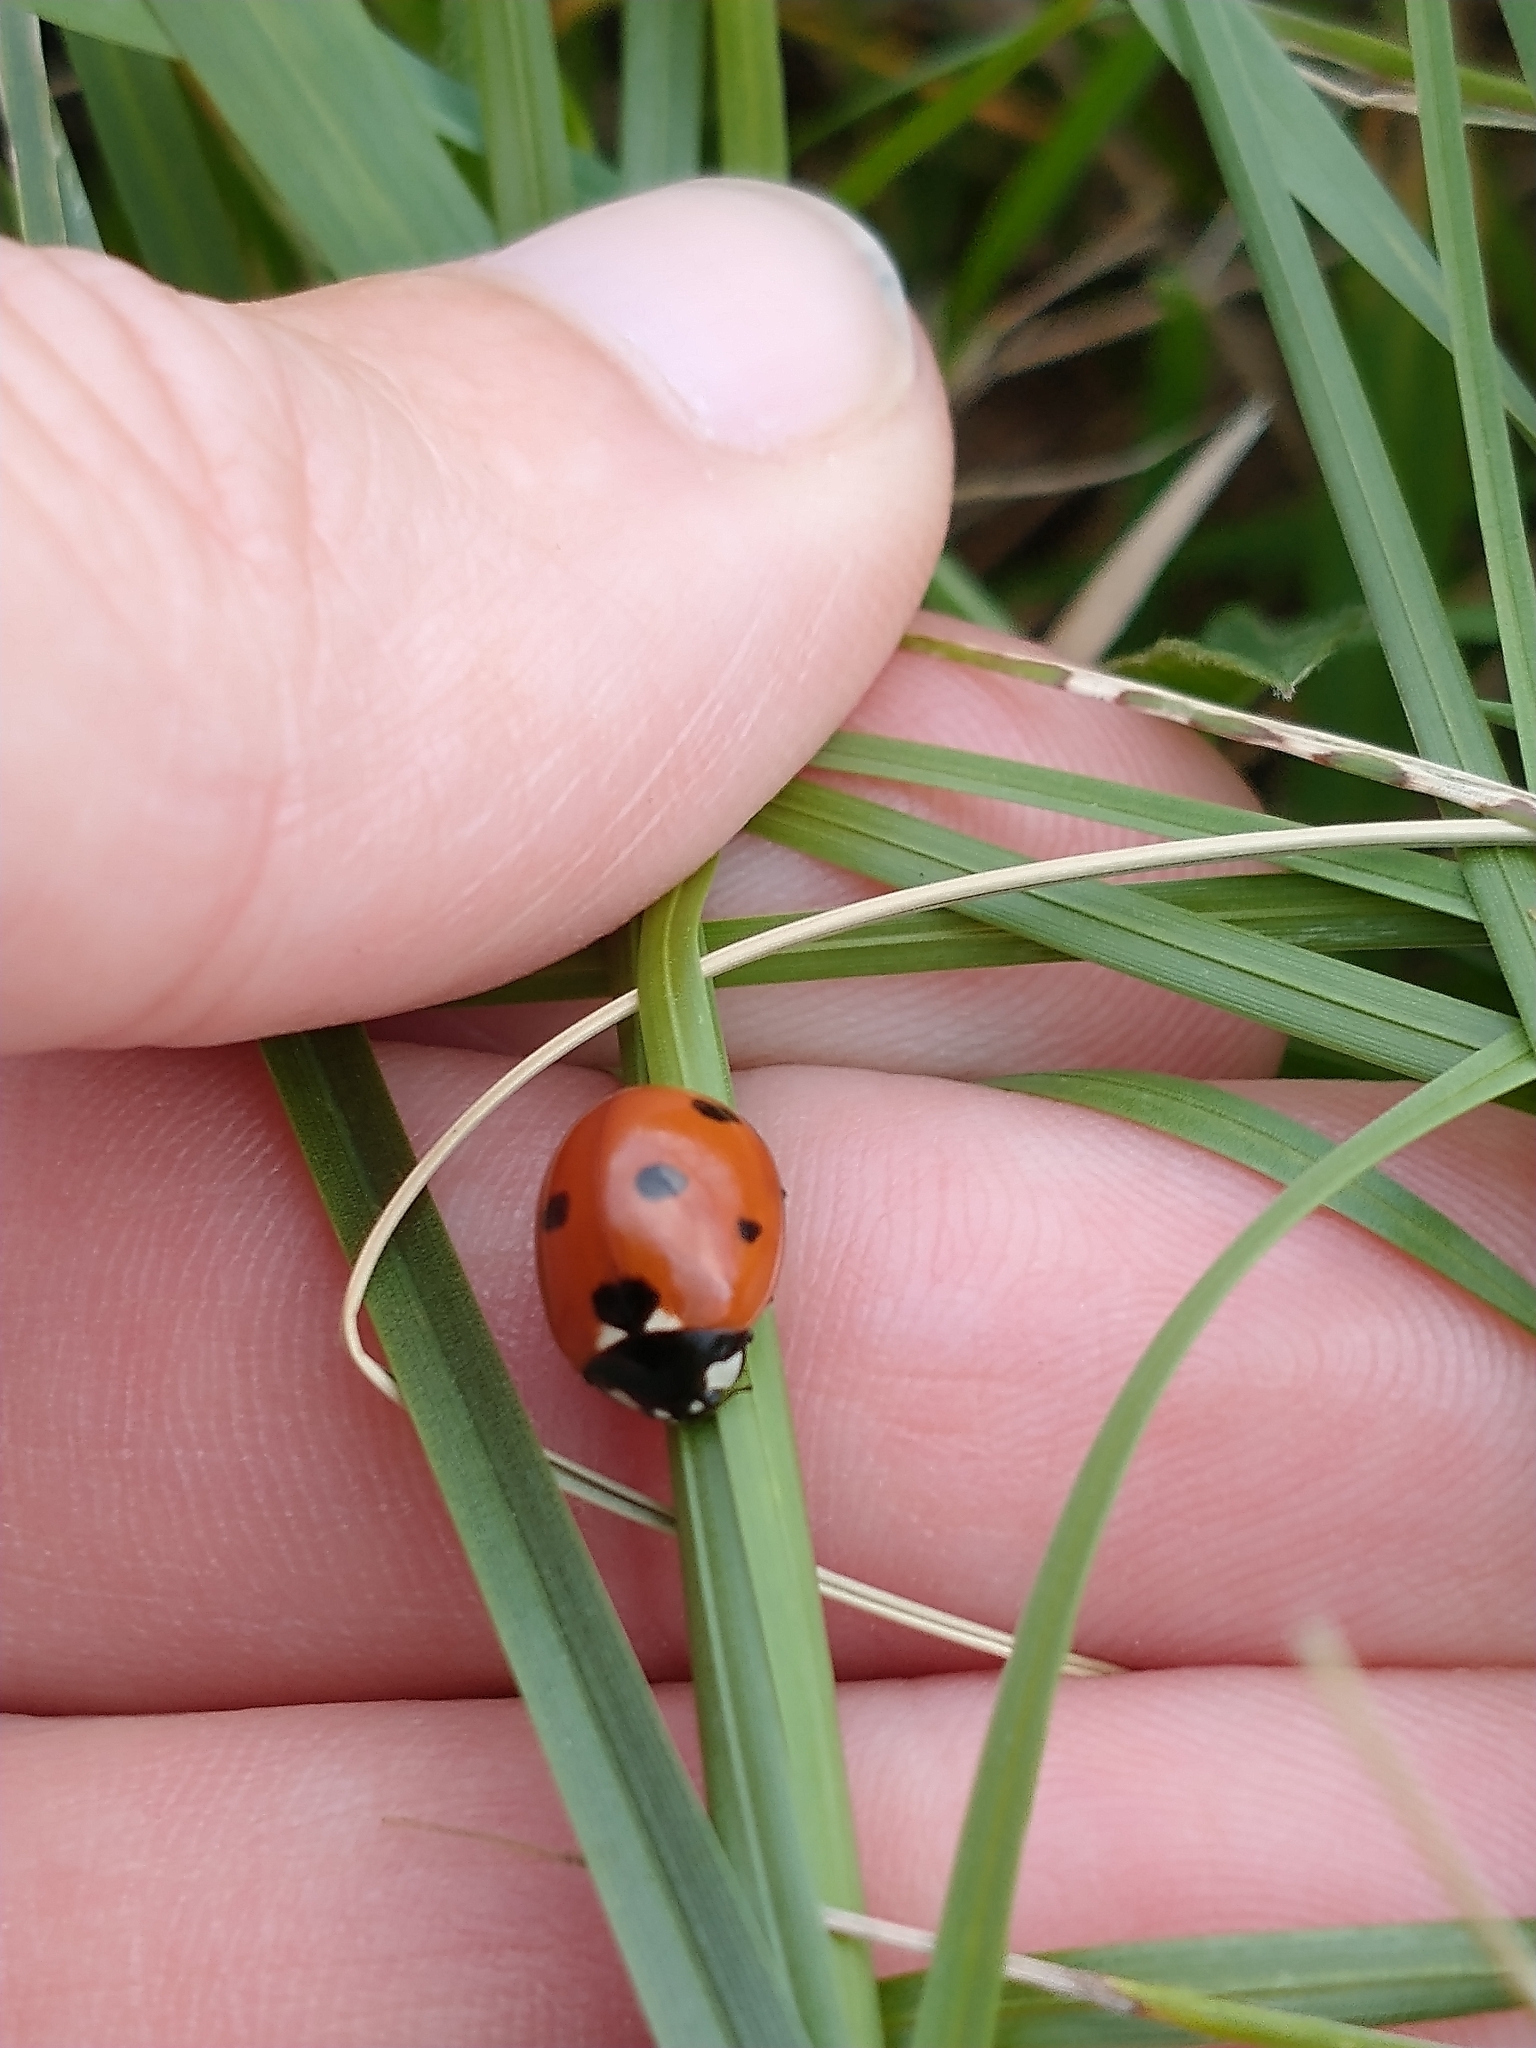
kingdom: Animalia
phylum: Arthropoda
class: Insecta
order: Coleoptera
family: Coccinellidae
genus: Coccinella
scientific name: Coccinella septempunctata
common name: Sevenspotted lady beetle
